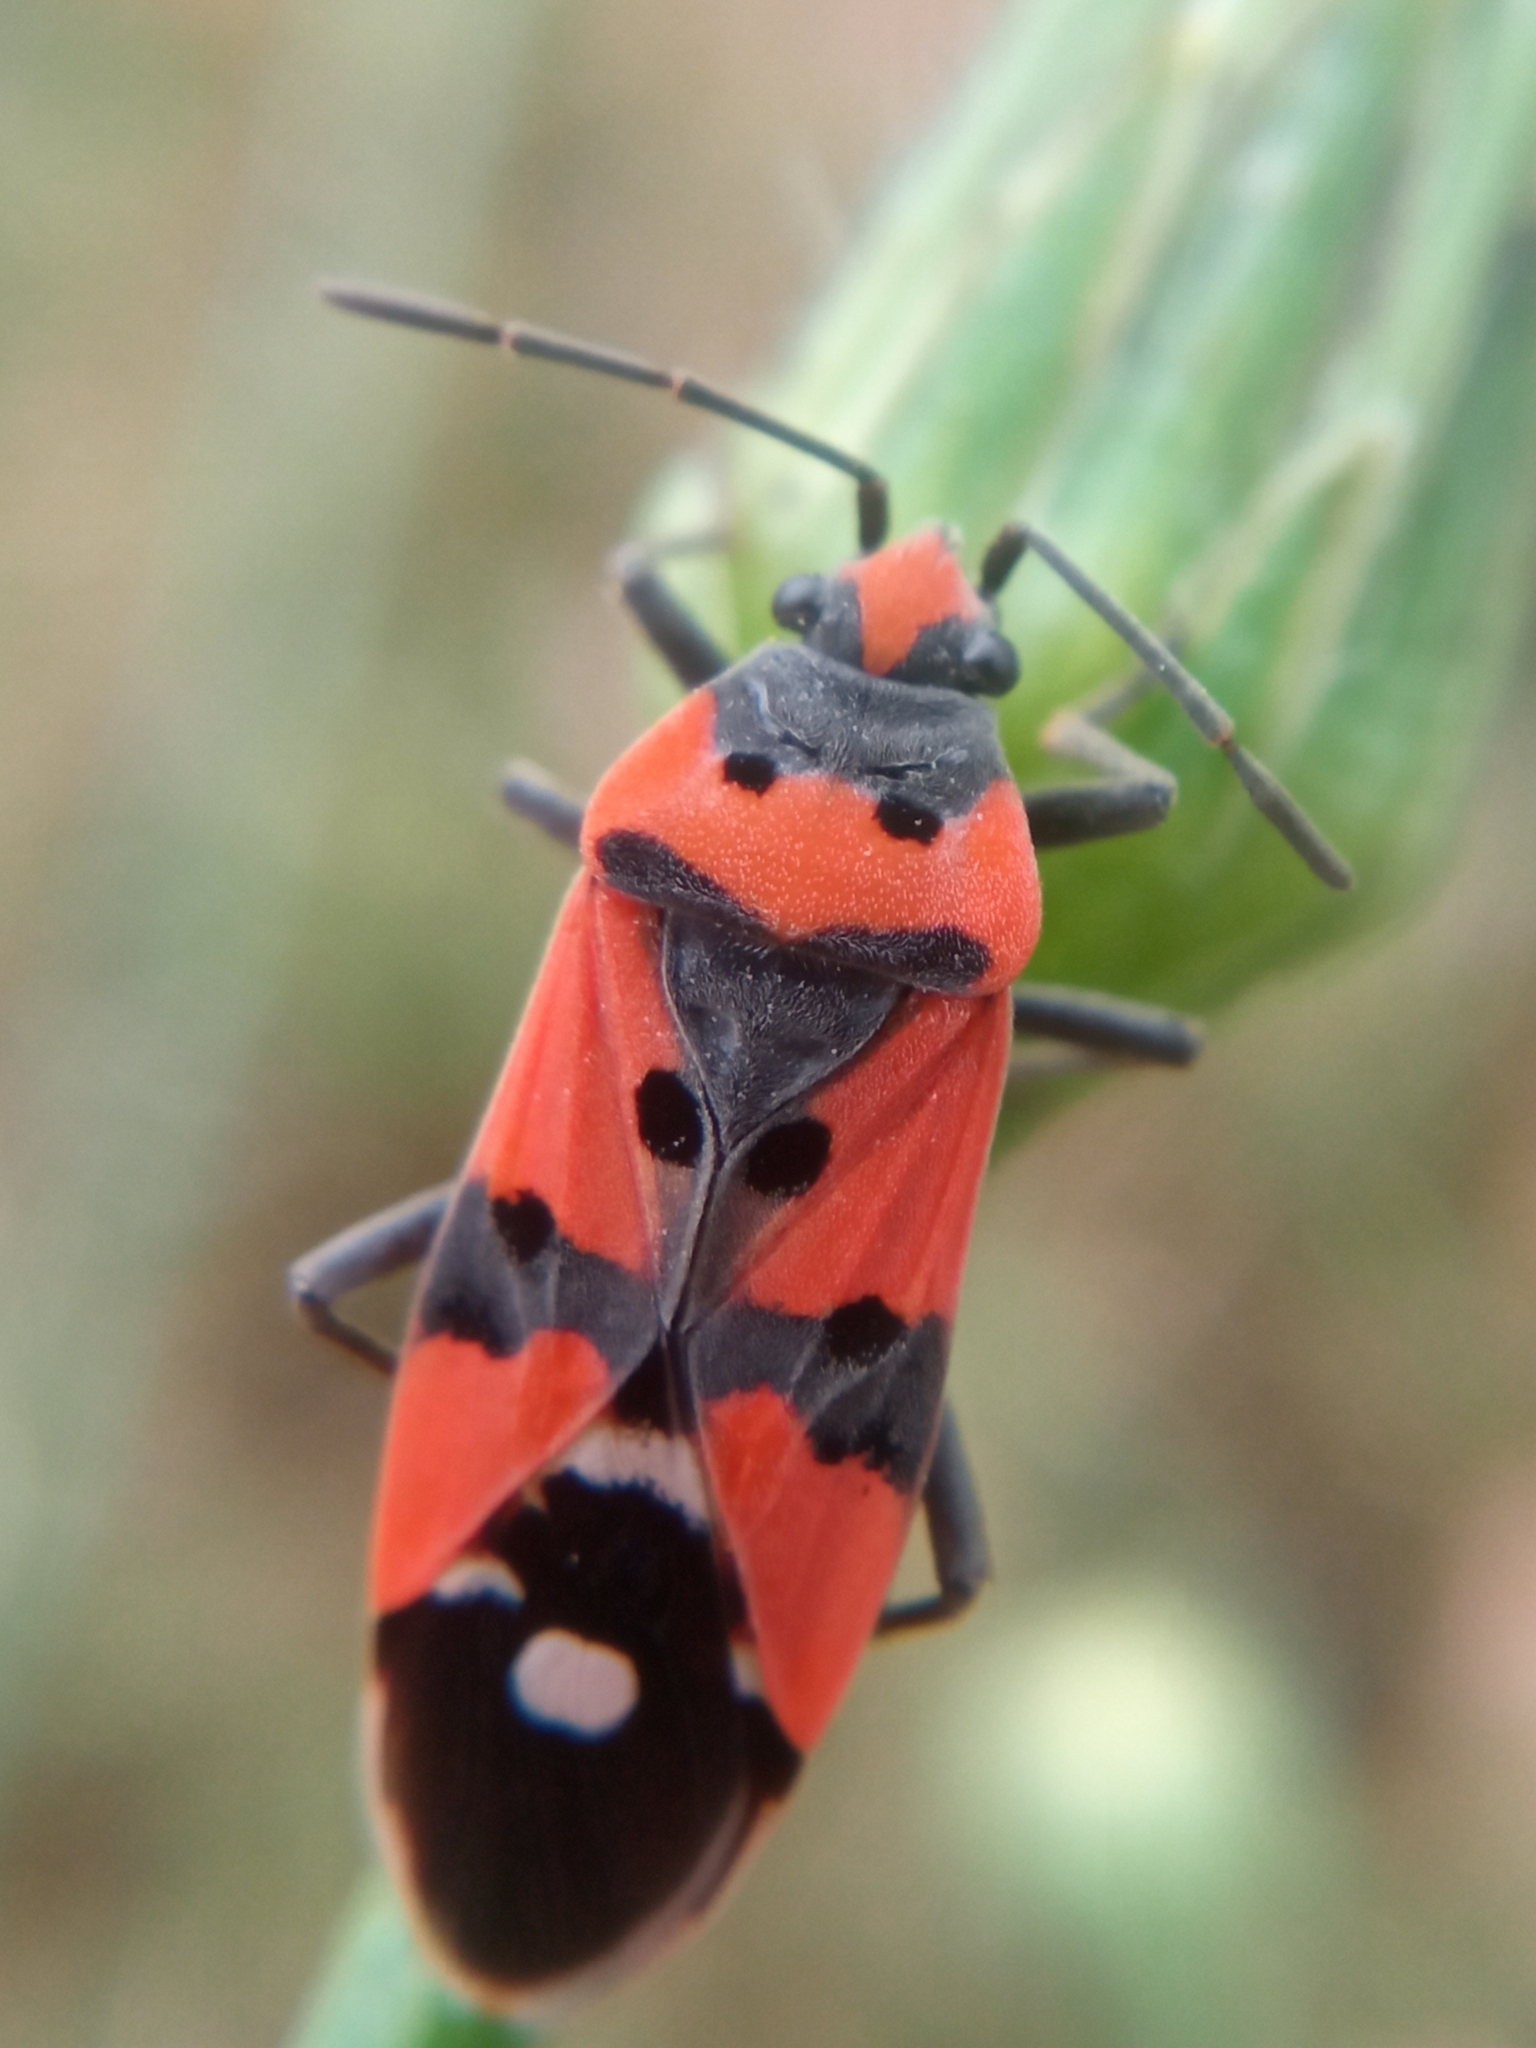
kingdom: Animalia
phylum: Arthropoda
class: Insecta
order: Hemiptera
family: Lygaeidae
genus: Lygaeus
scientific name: Lygaeus equestris
